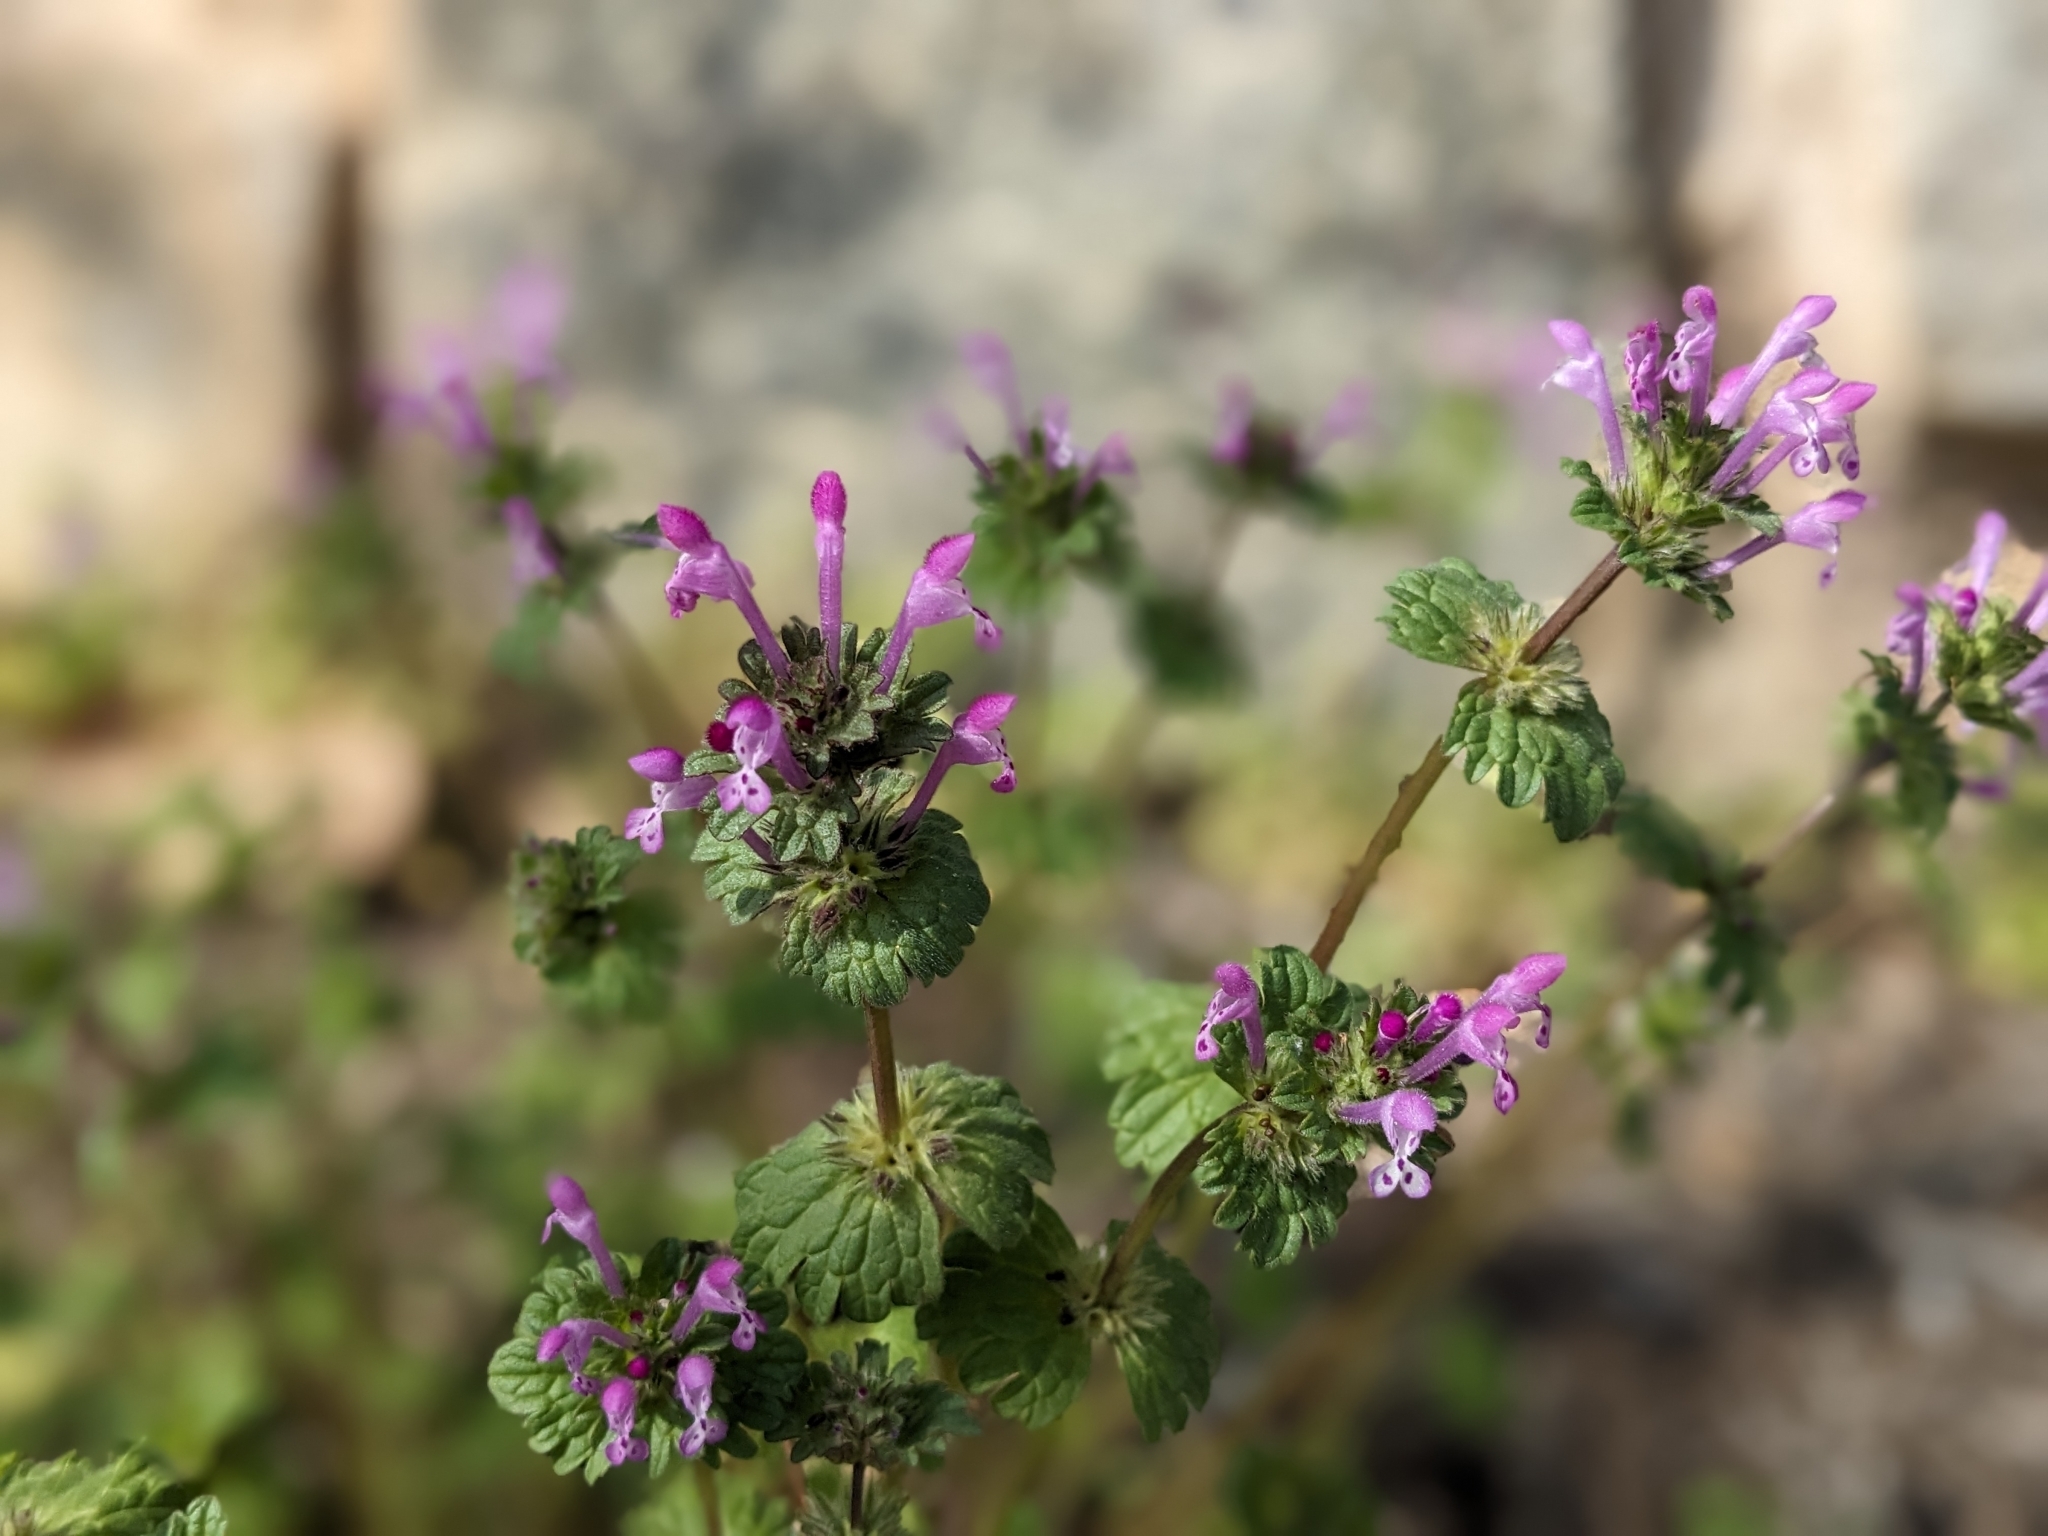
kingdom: Plantae
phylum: Tracheophyta
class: Magnoliopsida
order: Lamiales
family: Lamiaceae
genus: Lamium
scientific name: Lamium amplexicaule
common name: Henbit dead-nettle
